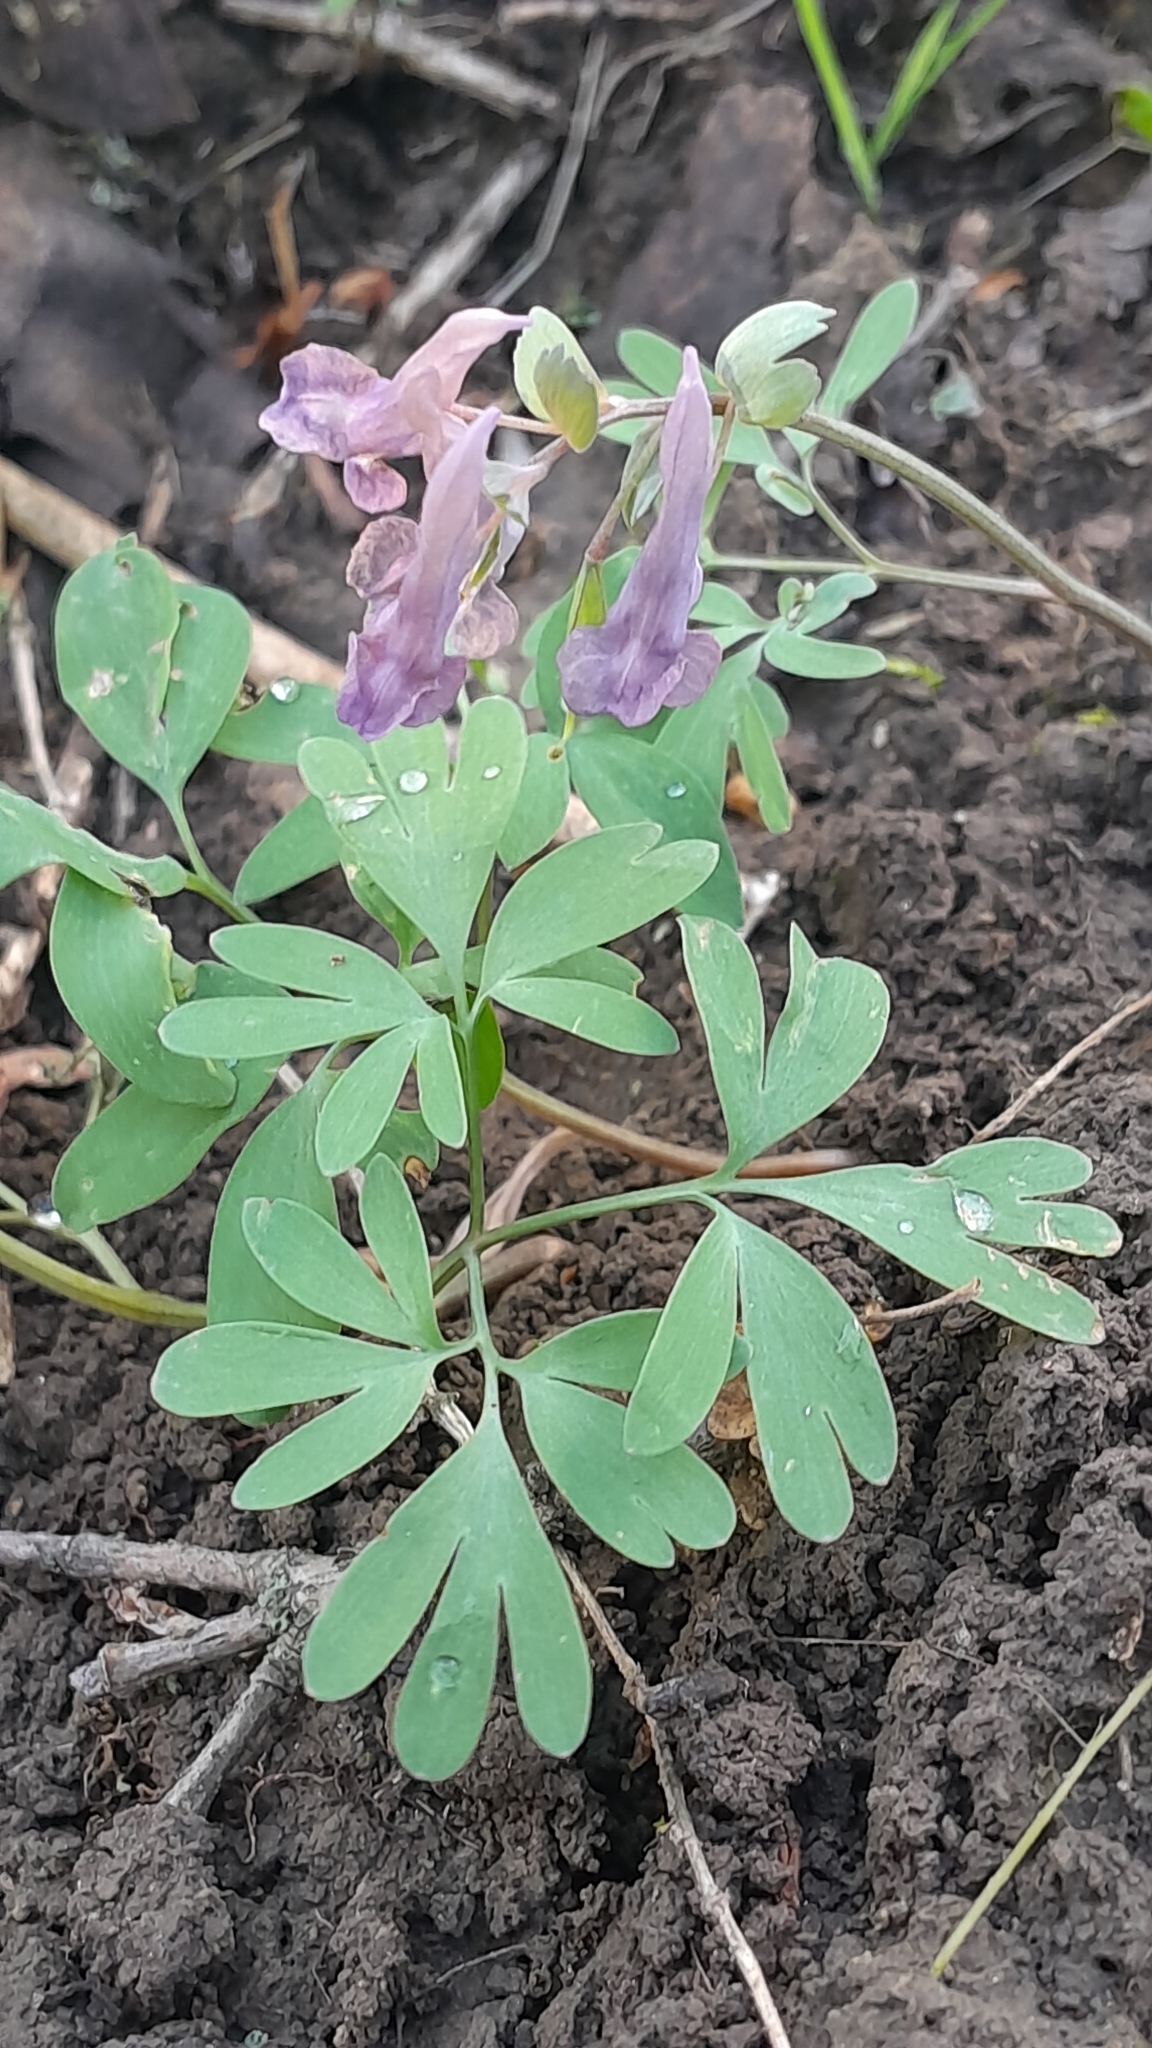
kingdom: Plantae
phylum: Tracheophyta
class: Magnoliopsida
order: Ranunculales
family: Papaveraceae
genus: Corydalis
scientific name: Corydalis solida
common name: Bird-in-a-bush
